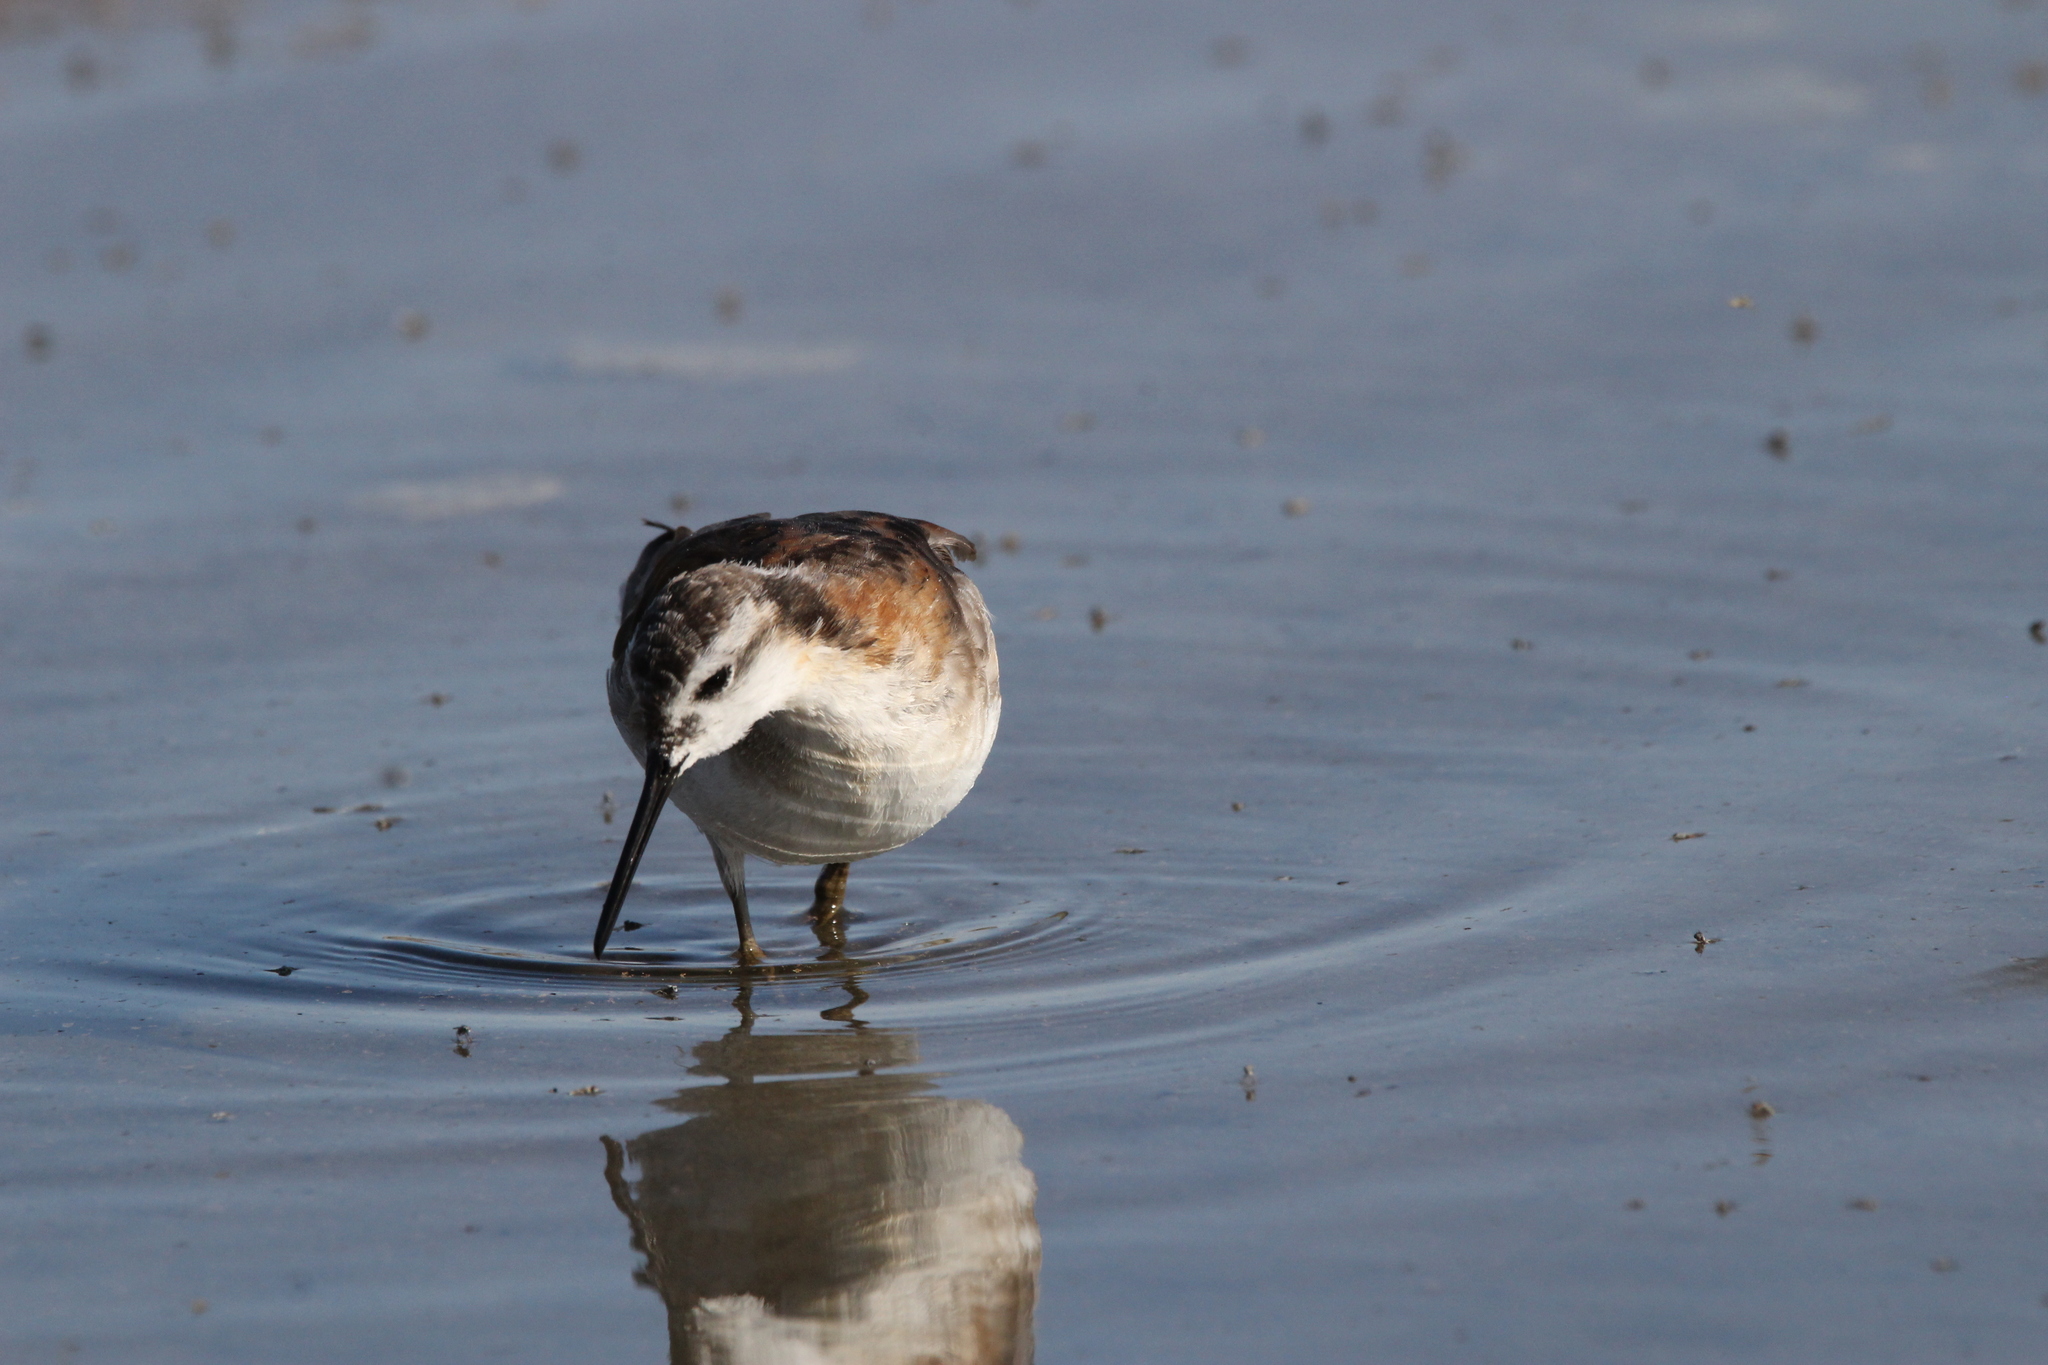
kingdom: Animalia
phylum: Chordata
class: Aves
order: Charadriiformes
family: Scolopacidae
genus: Phalaropus
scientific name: Phalaropus tricolor
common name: Wilson's phalarope
